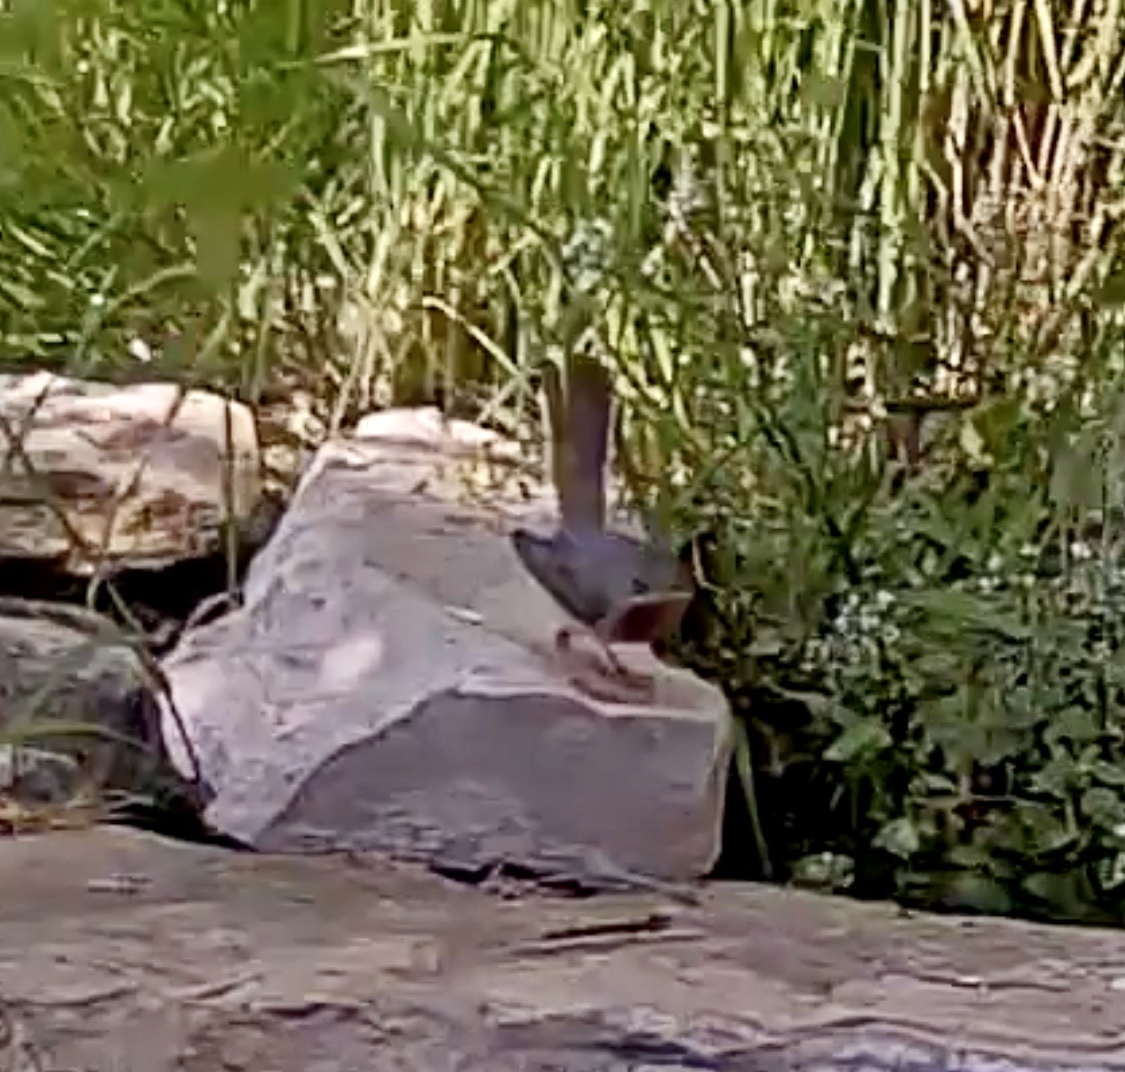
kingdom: Animalia
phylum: Chordata
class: Aves
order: Passeriformes
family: Sylviidae
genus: Curruca
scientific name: Curruca iberiae
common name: Western subalpine warbler
